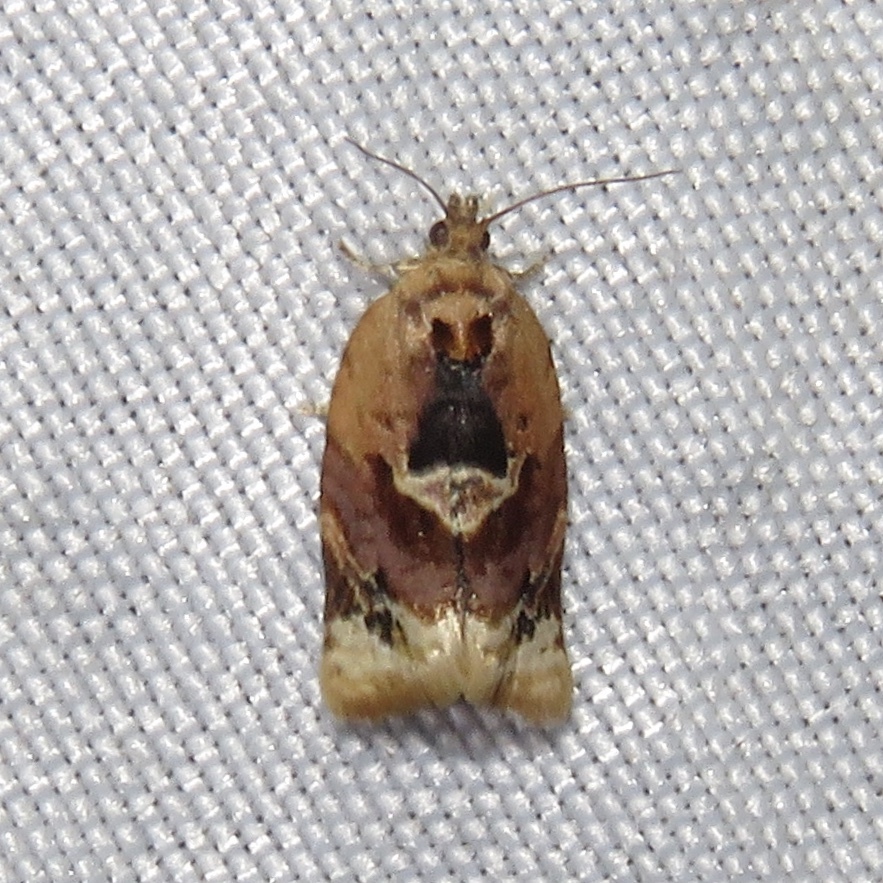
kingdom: Animalia
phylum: Arthropoda
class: Insecta
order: Lepidoptera
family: Tortricidae
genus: Argyrotaenia
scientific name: Argyrotaenia velutinana
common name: Red-banded leafroller moth
